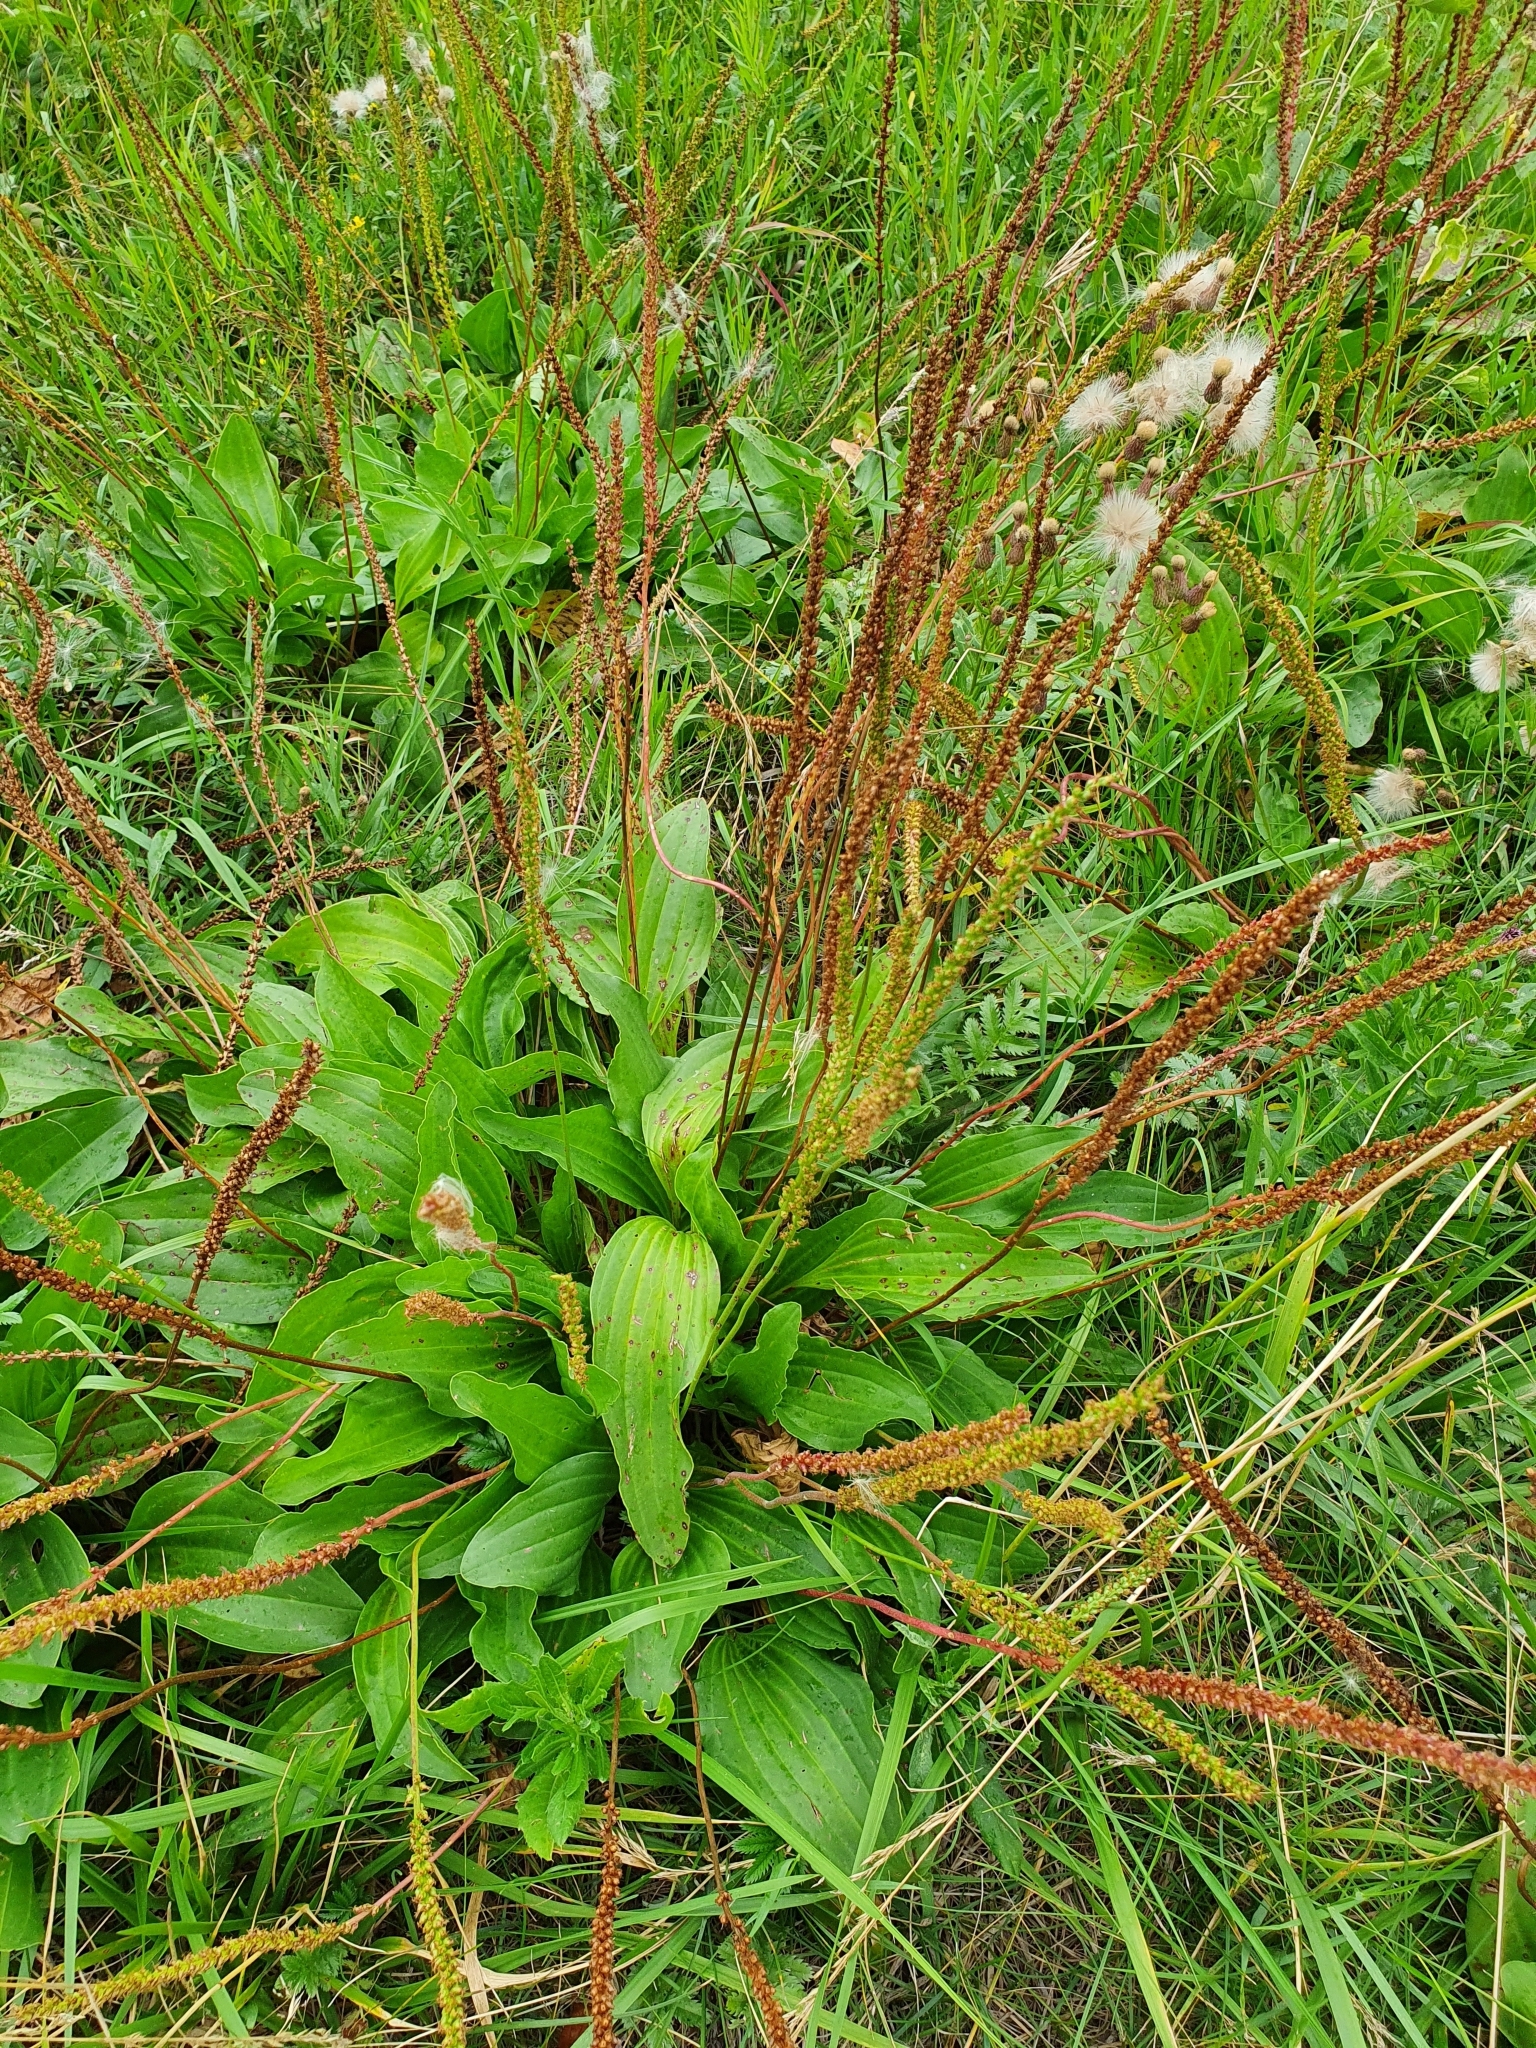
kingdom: Plantae
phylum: Tracheophyta
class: Magnoliopsida
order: Lamiales
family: Plantaginaceae
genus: Plantago
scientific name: Plantago cornuti
